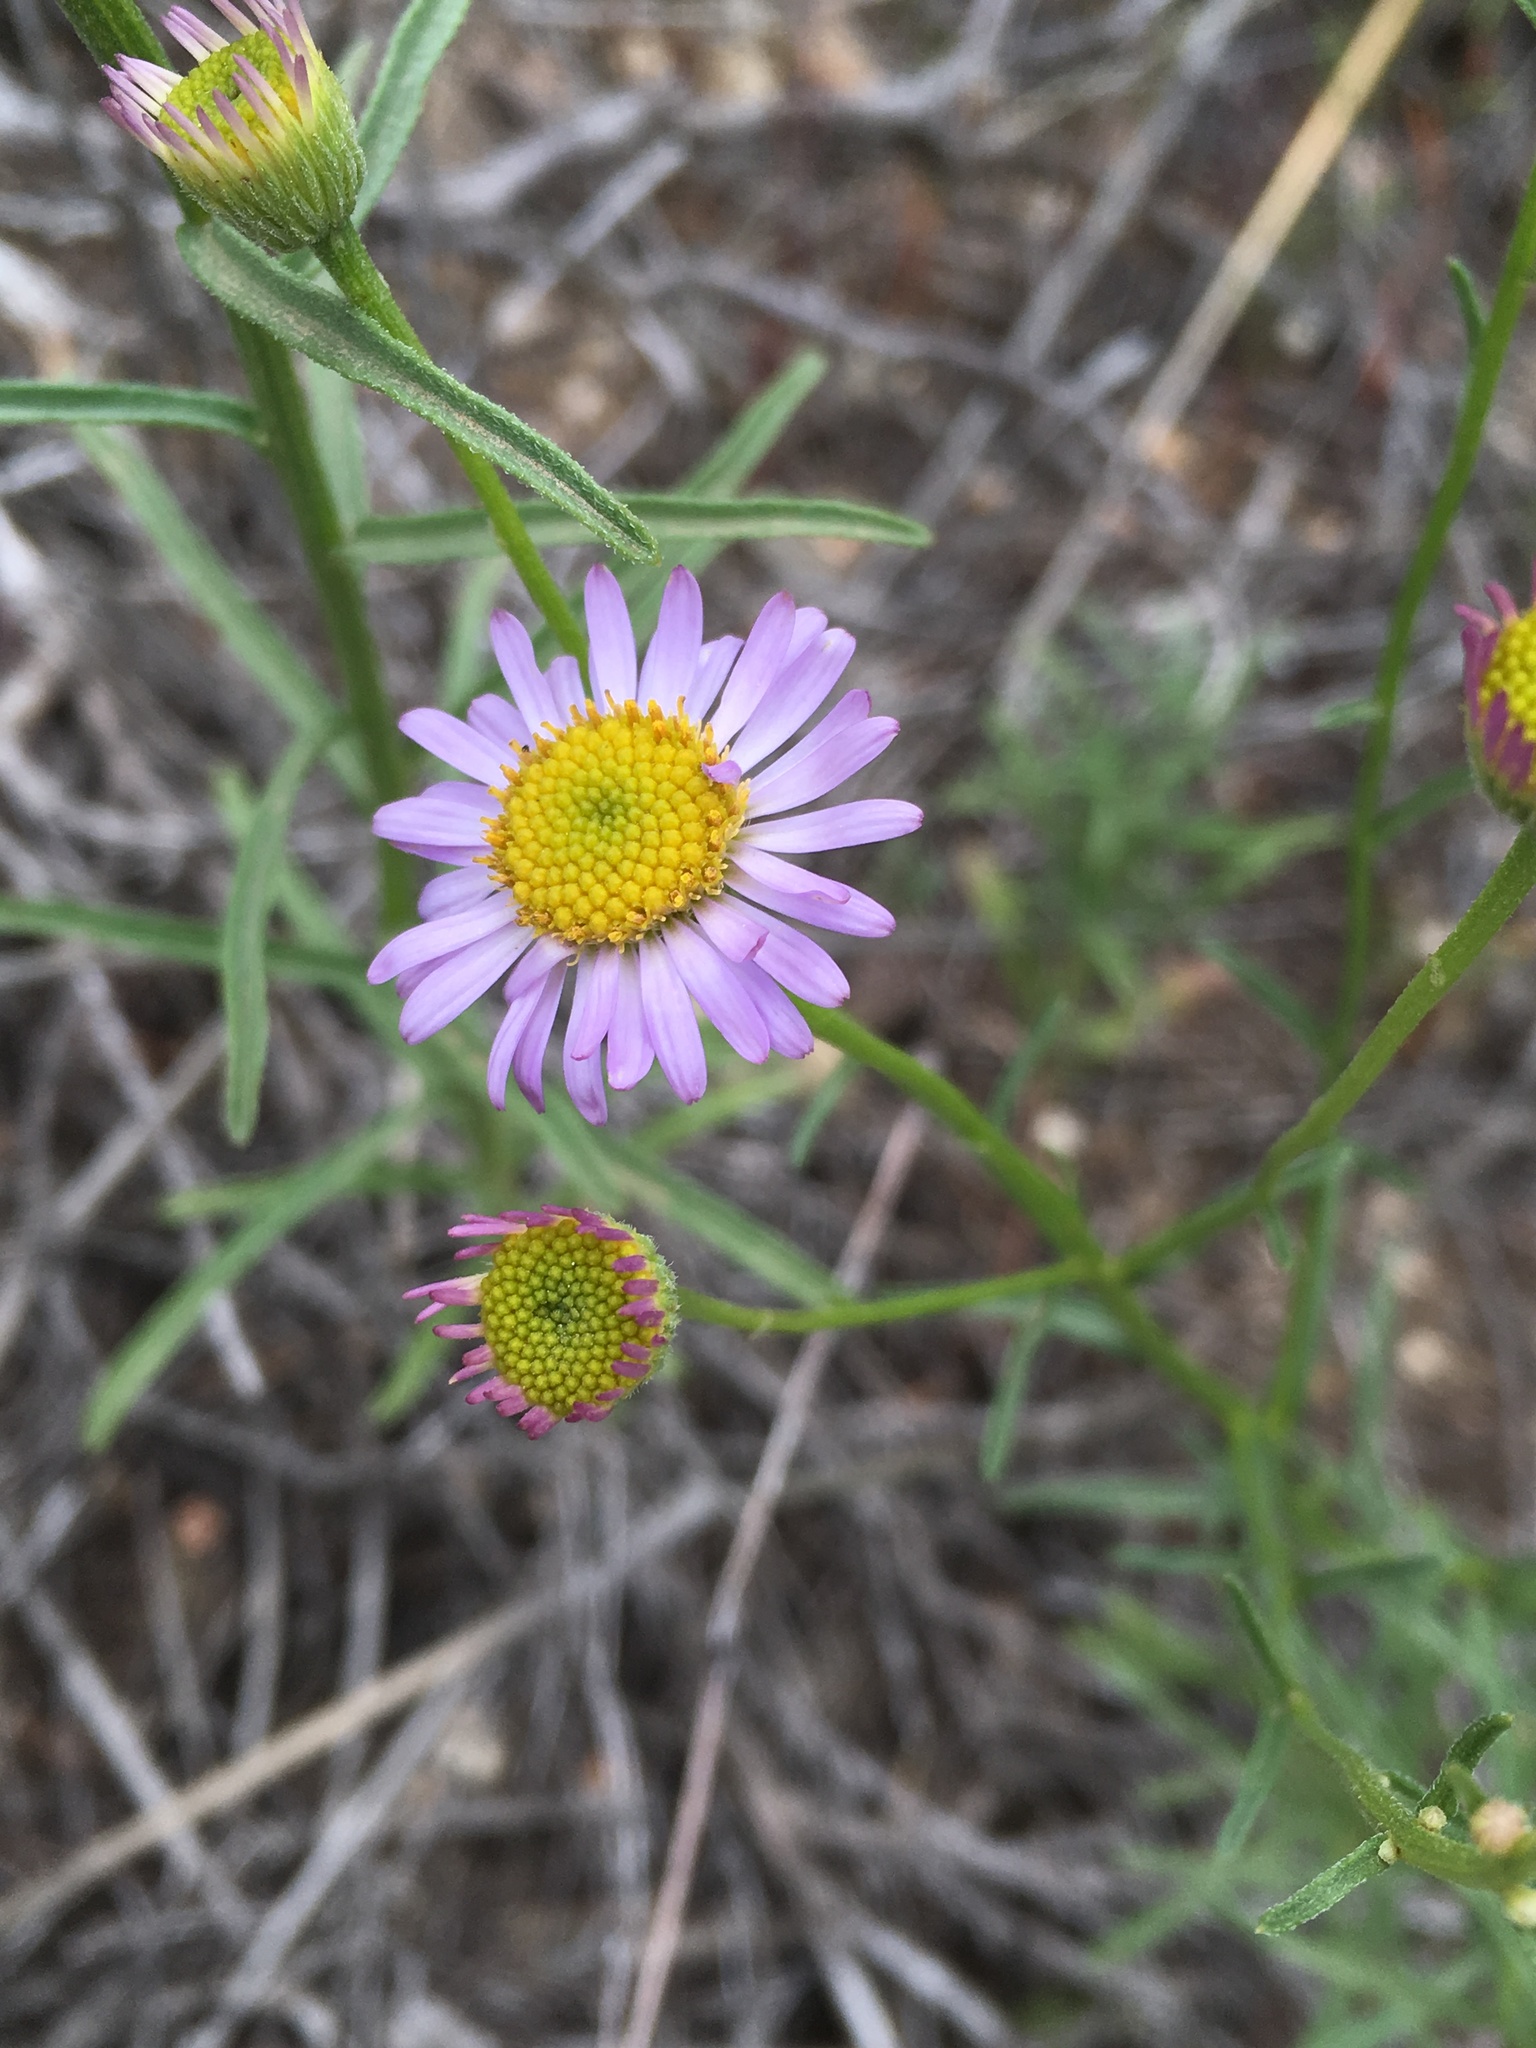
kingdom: Plantae
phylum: Tracheophyta
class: Magnoliopsida
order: Asterales
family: Asteraceae
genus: Erigeron
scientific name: Erigeron foliosus
